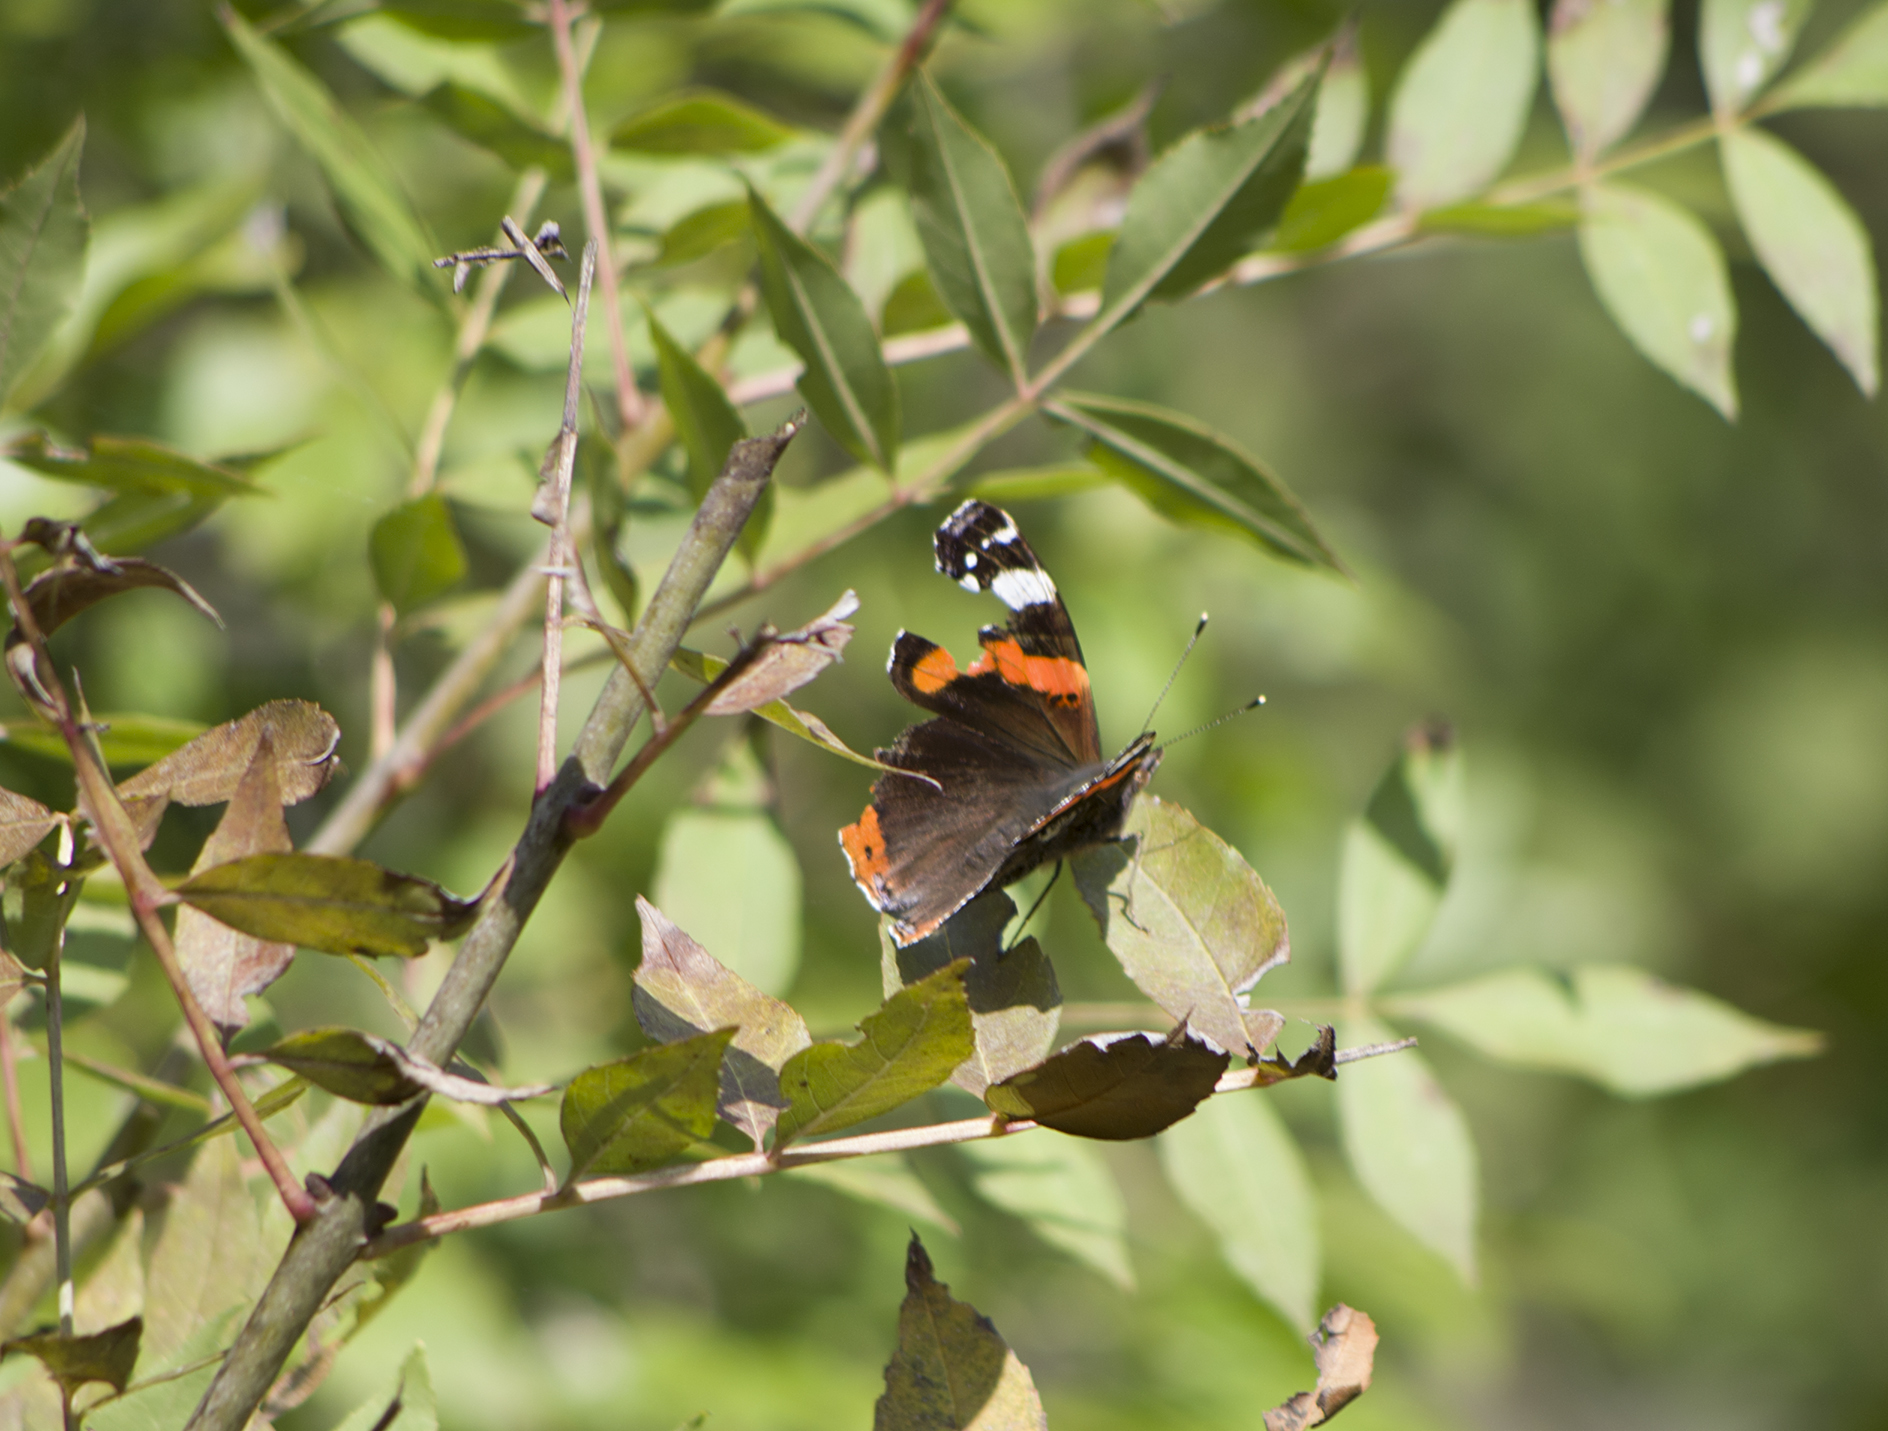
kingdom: Animalia
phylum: Arthropoda
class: Insecta
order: Lepidoptera
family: Nymphalidae
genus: Vanessa
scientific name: Vanessa atalanta
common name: Red admiral
